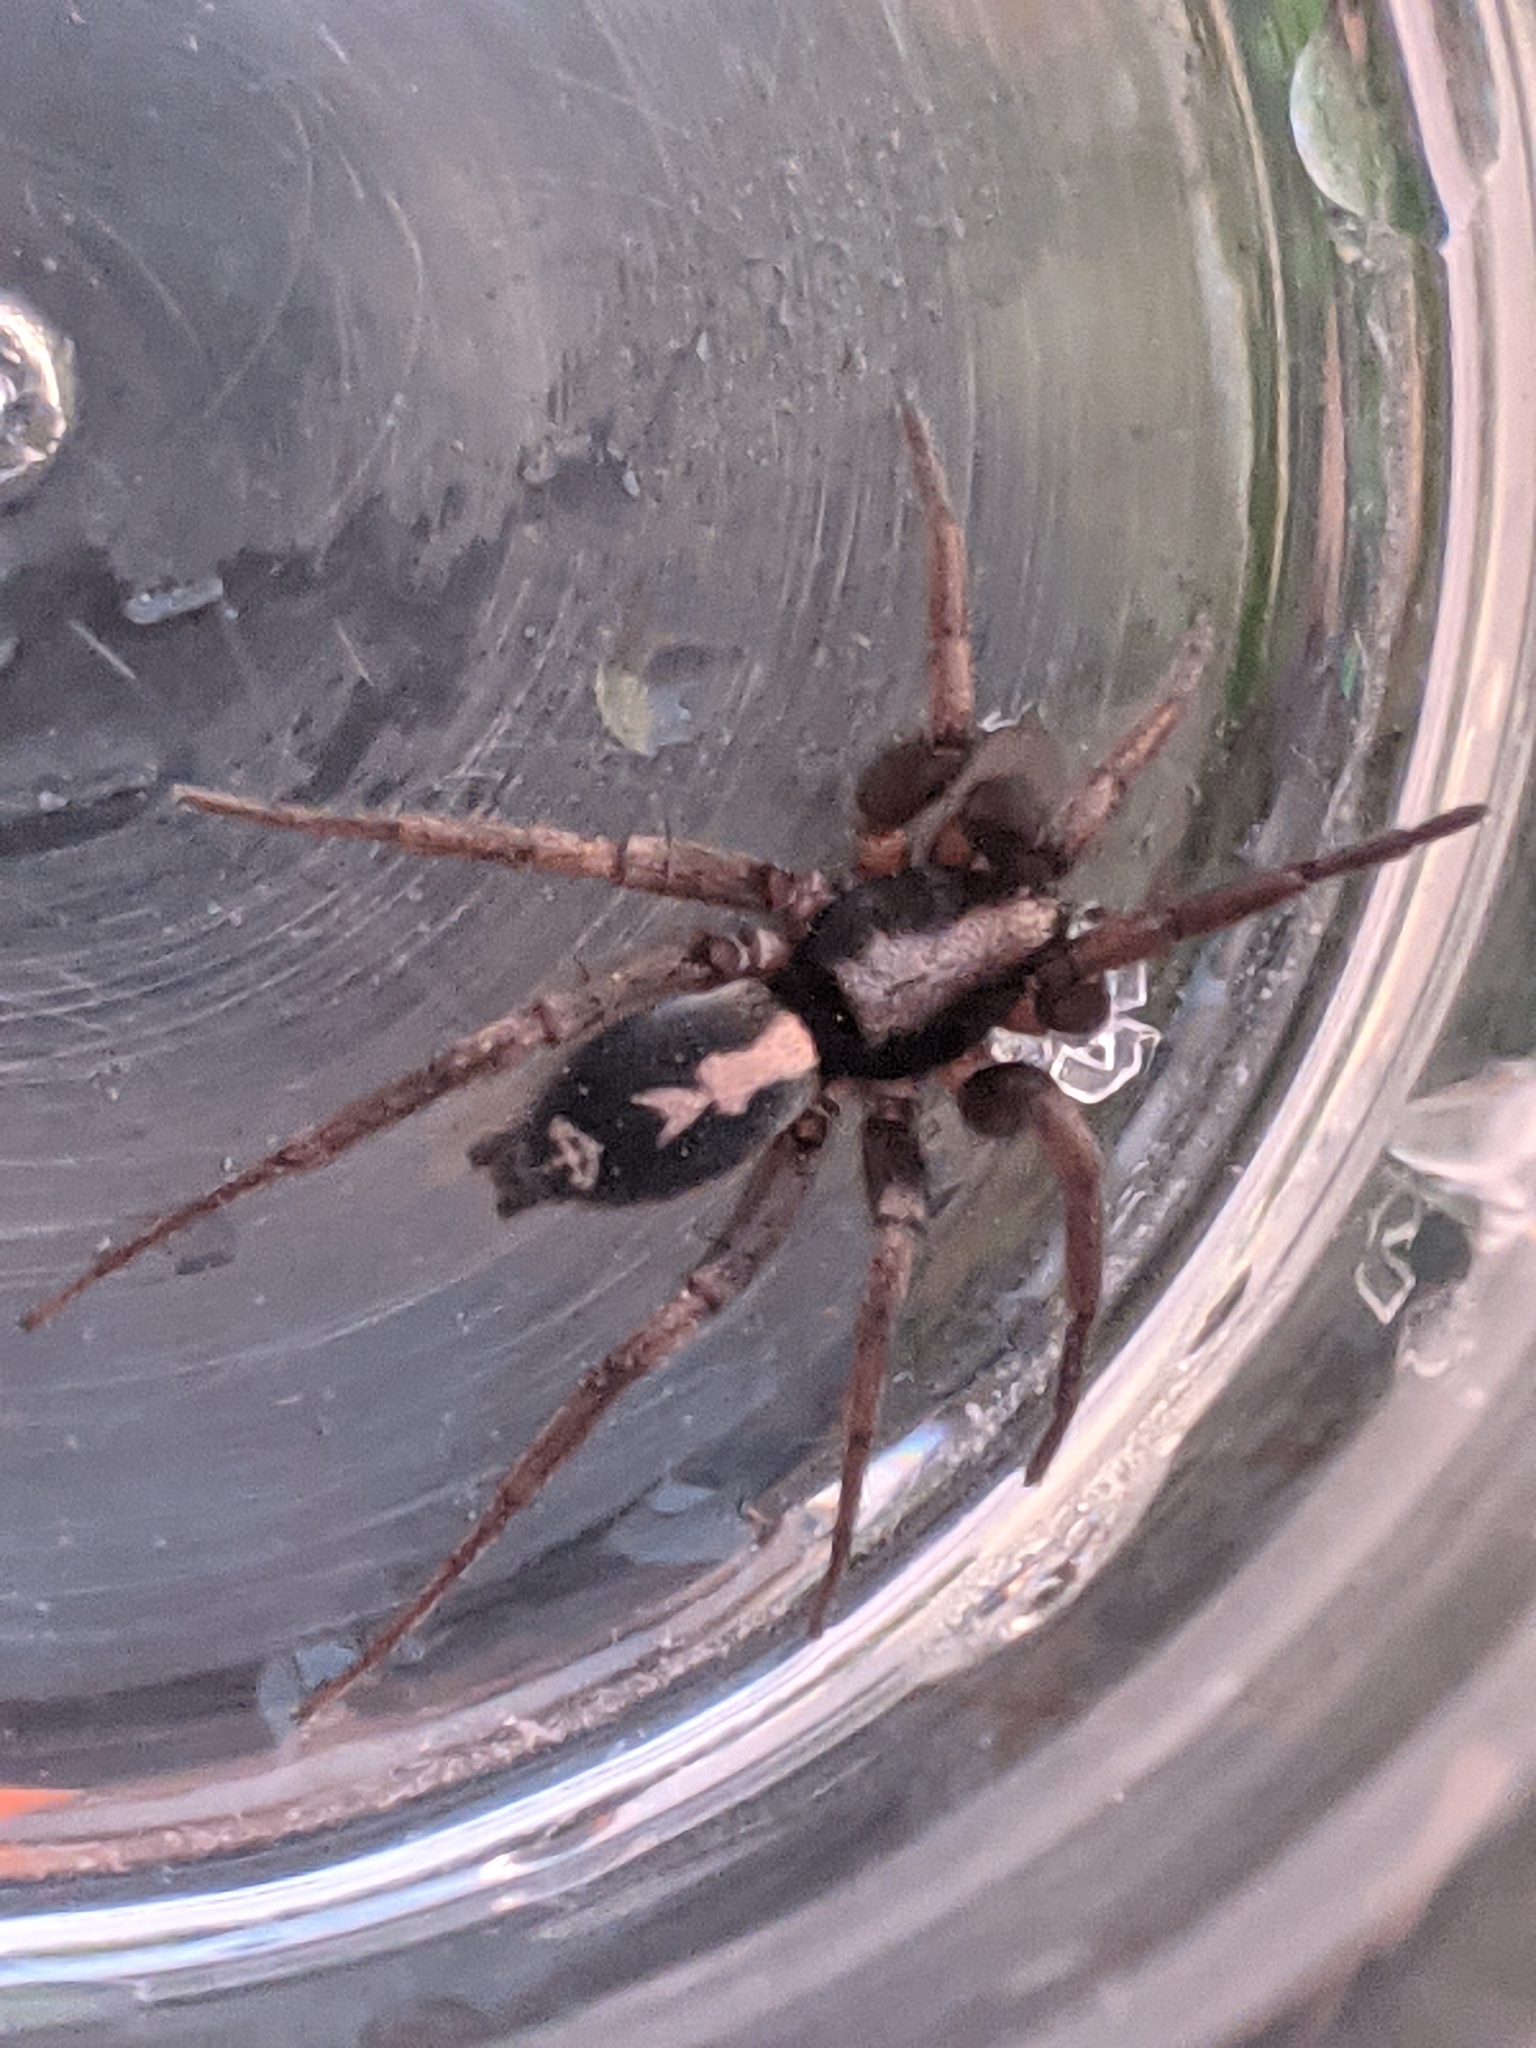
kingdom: Animalia
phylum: Arthropoda
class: Arachnida
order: Araneae
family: Gnaphosidae
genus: Herpyllus
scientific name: Herpyllus ecclesiasticus
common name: Eastern parson spider
